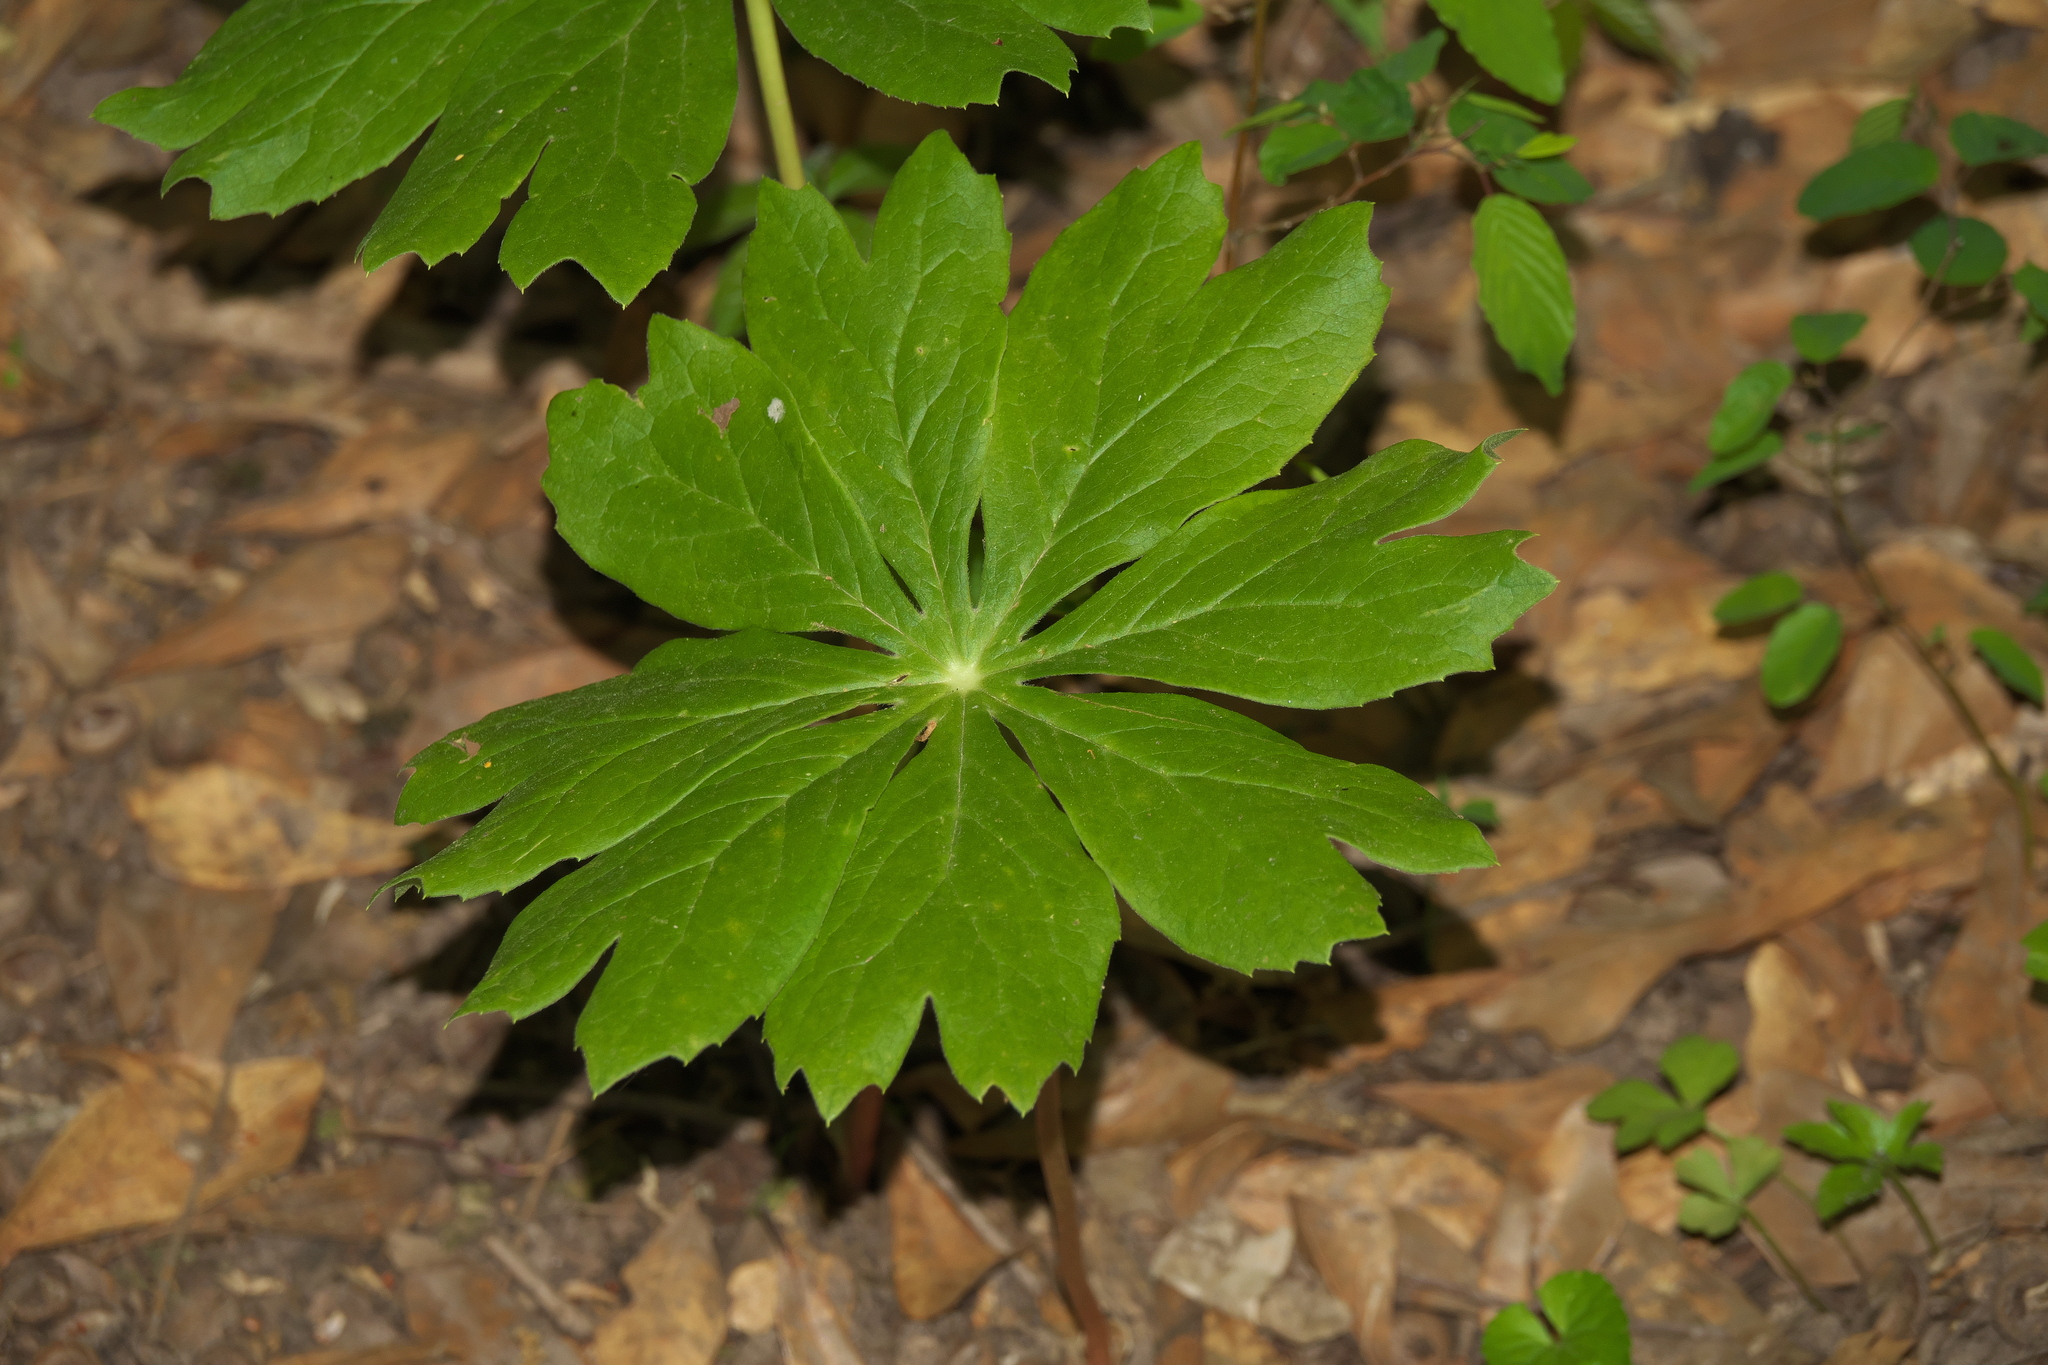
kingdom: Plantae
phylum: Tracheophyta
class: Magnoliopsida
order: Ranunculales
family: Berberidaceae
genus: Podophyllum
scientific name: Podophyllum peltatum
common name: Wild mandrake
